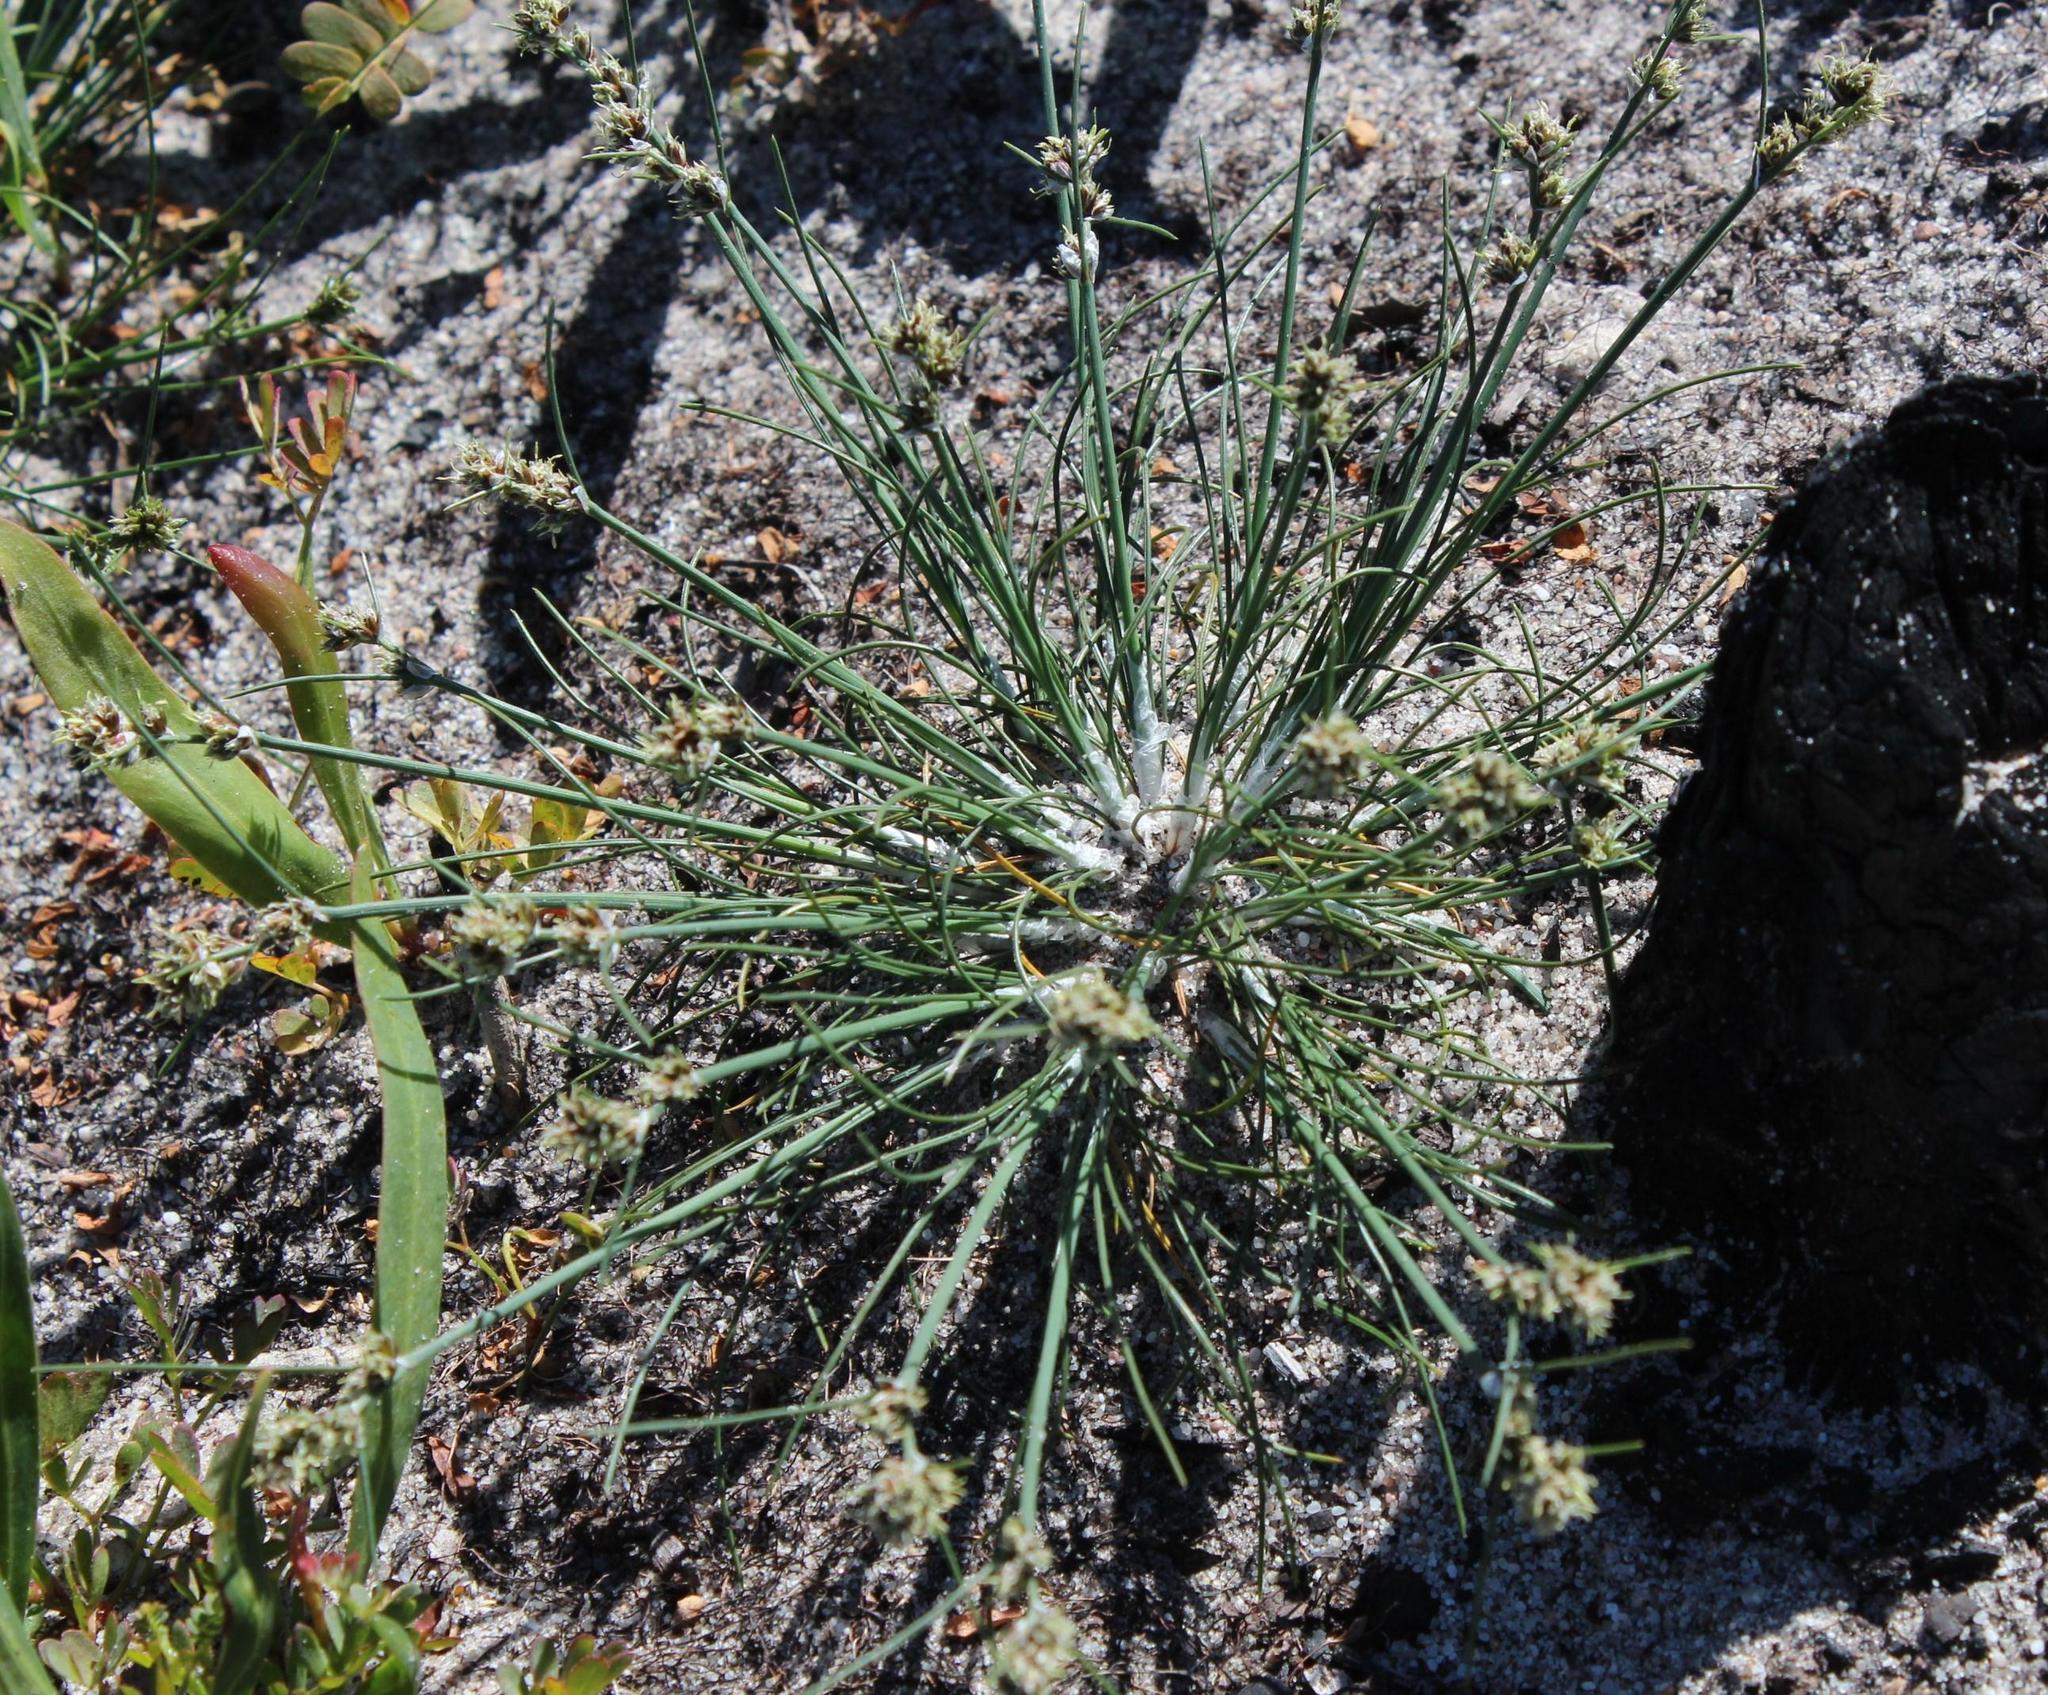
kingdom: Plantae
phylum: Tracheophyta
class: Liliopsida
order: Poales
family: Cyperaceae
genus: Ficinia
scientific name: Ficinia bulbosa
